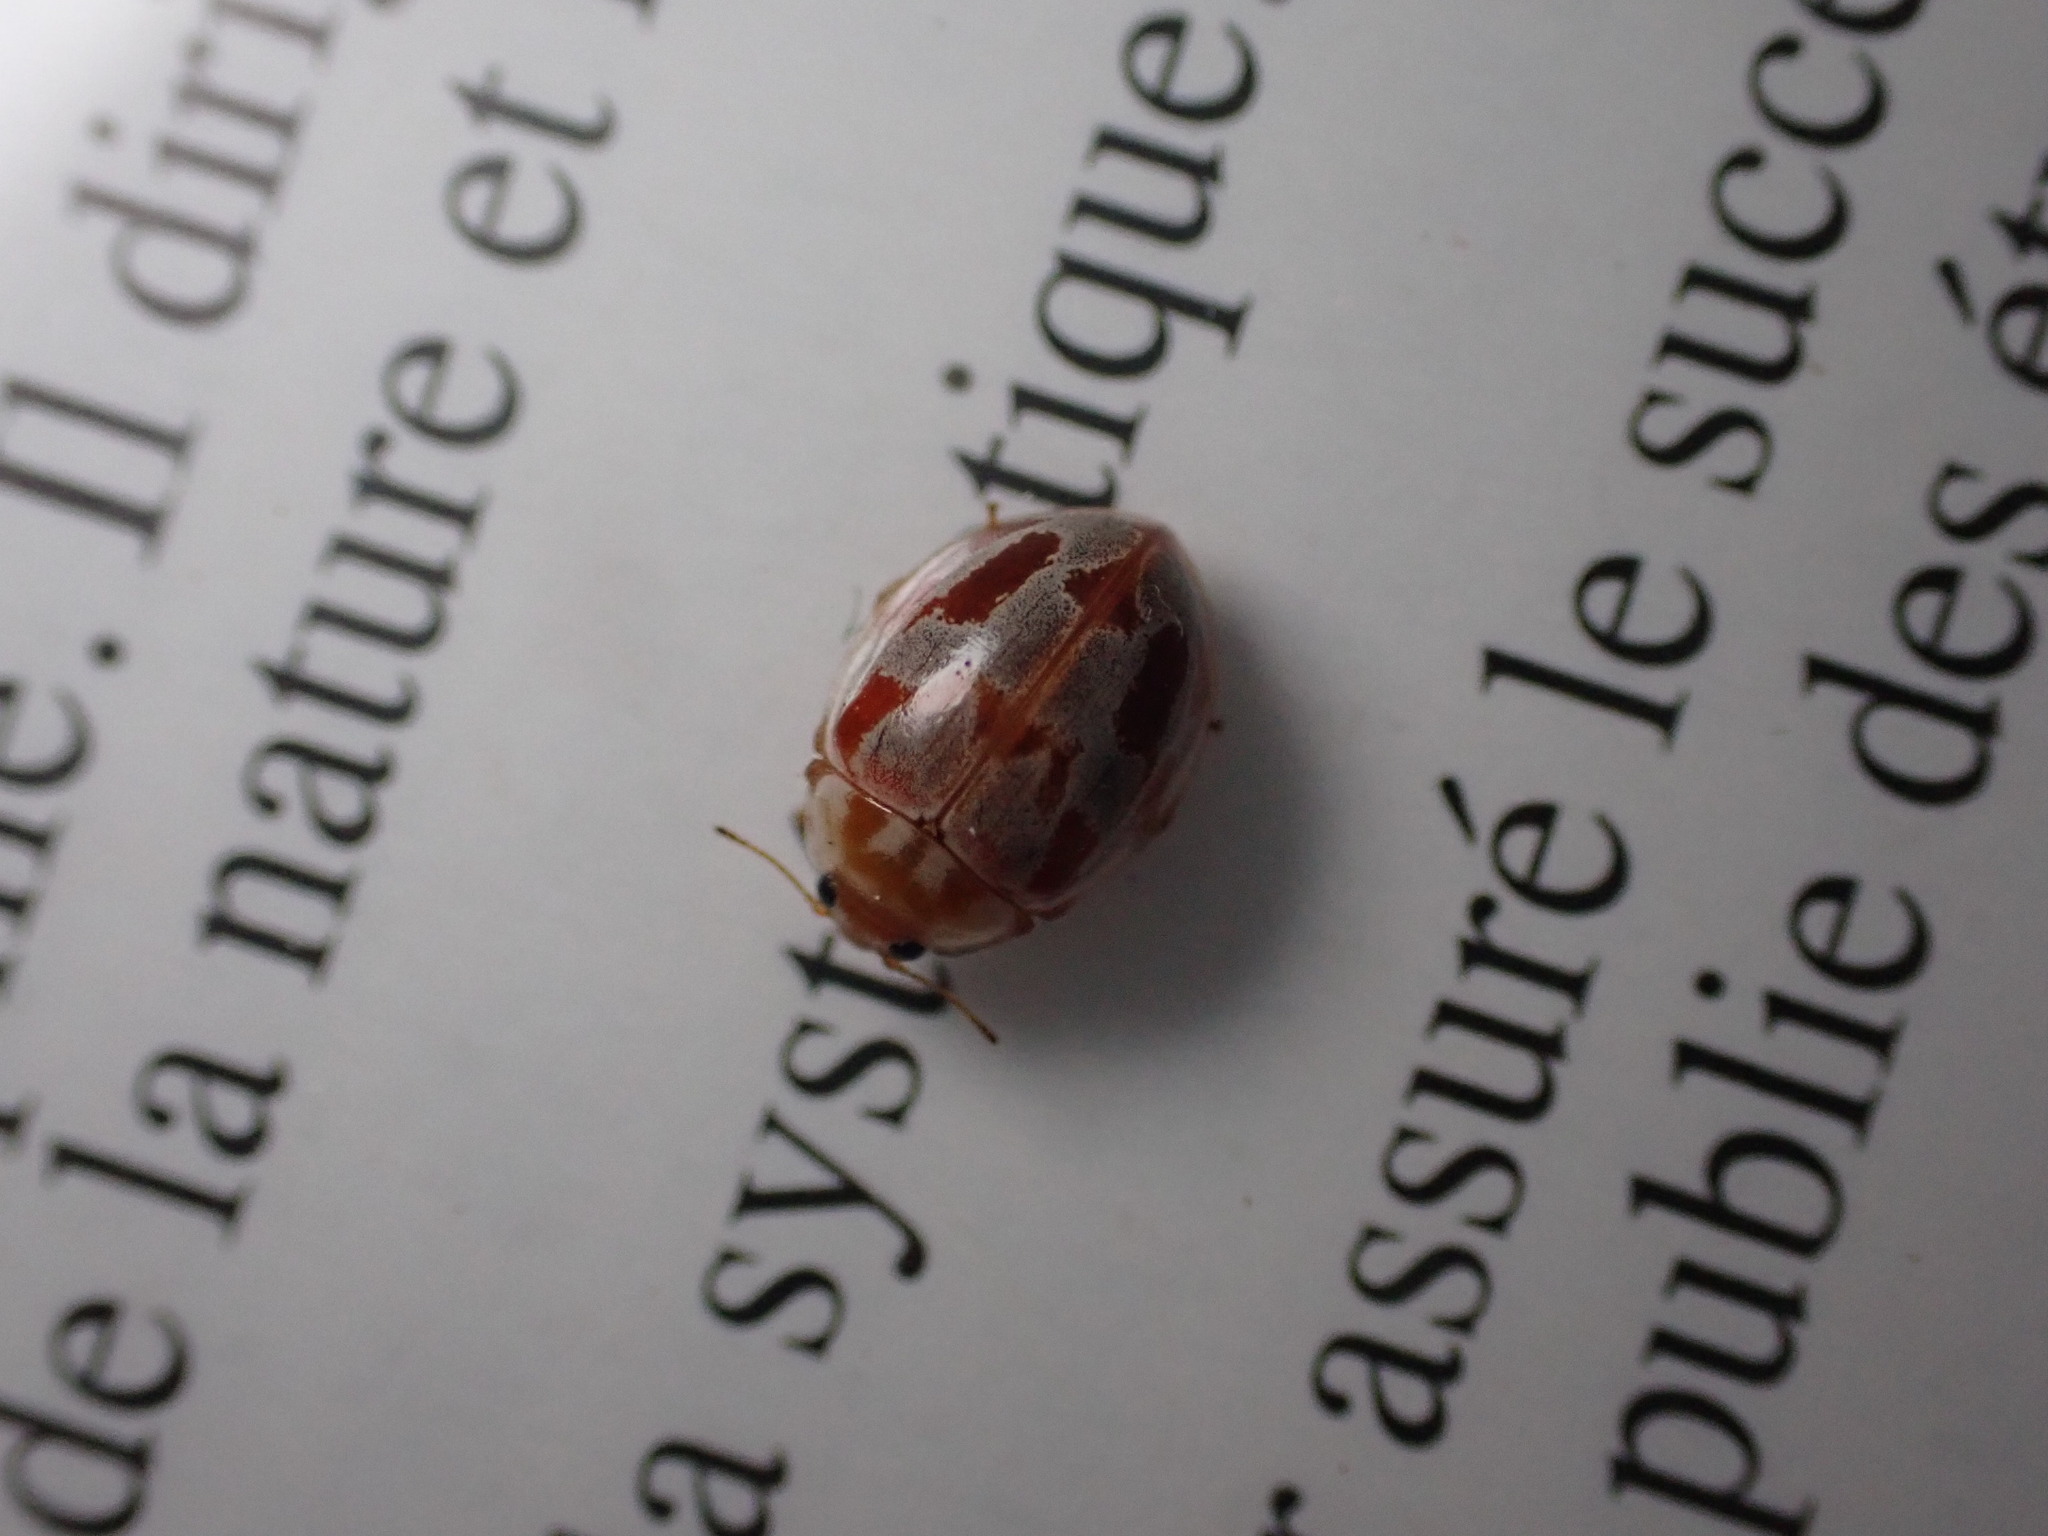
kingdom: Animalia
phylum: Arthropoda
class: Insecta
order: Coleoptera
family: Coccinellidae
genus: Myrrha
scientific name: Myrrha octodecimguttata
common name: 18-spot ladybird
